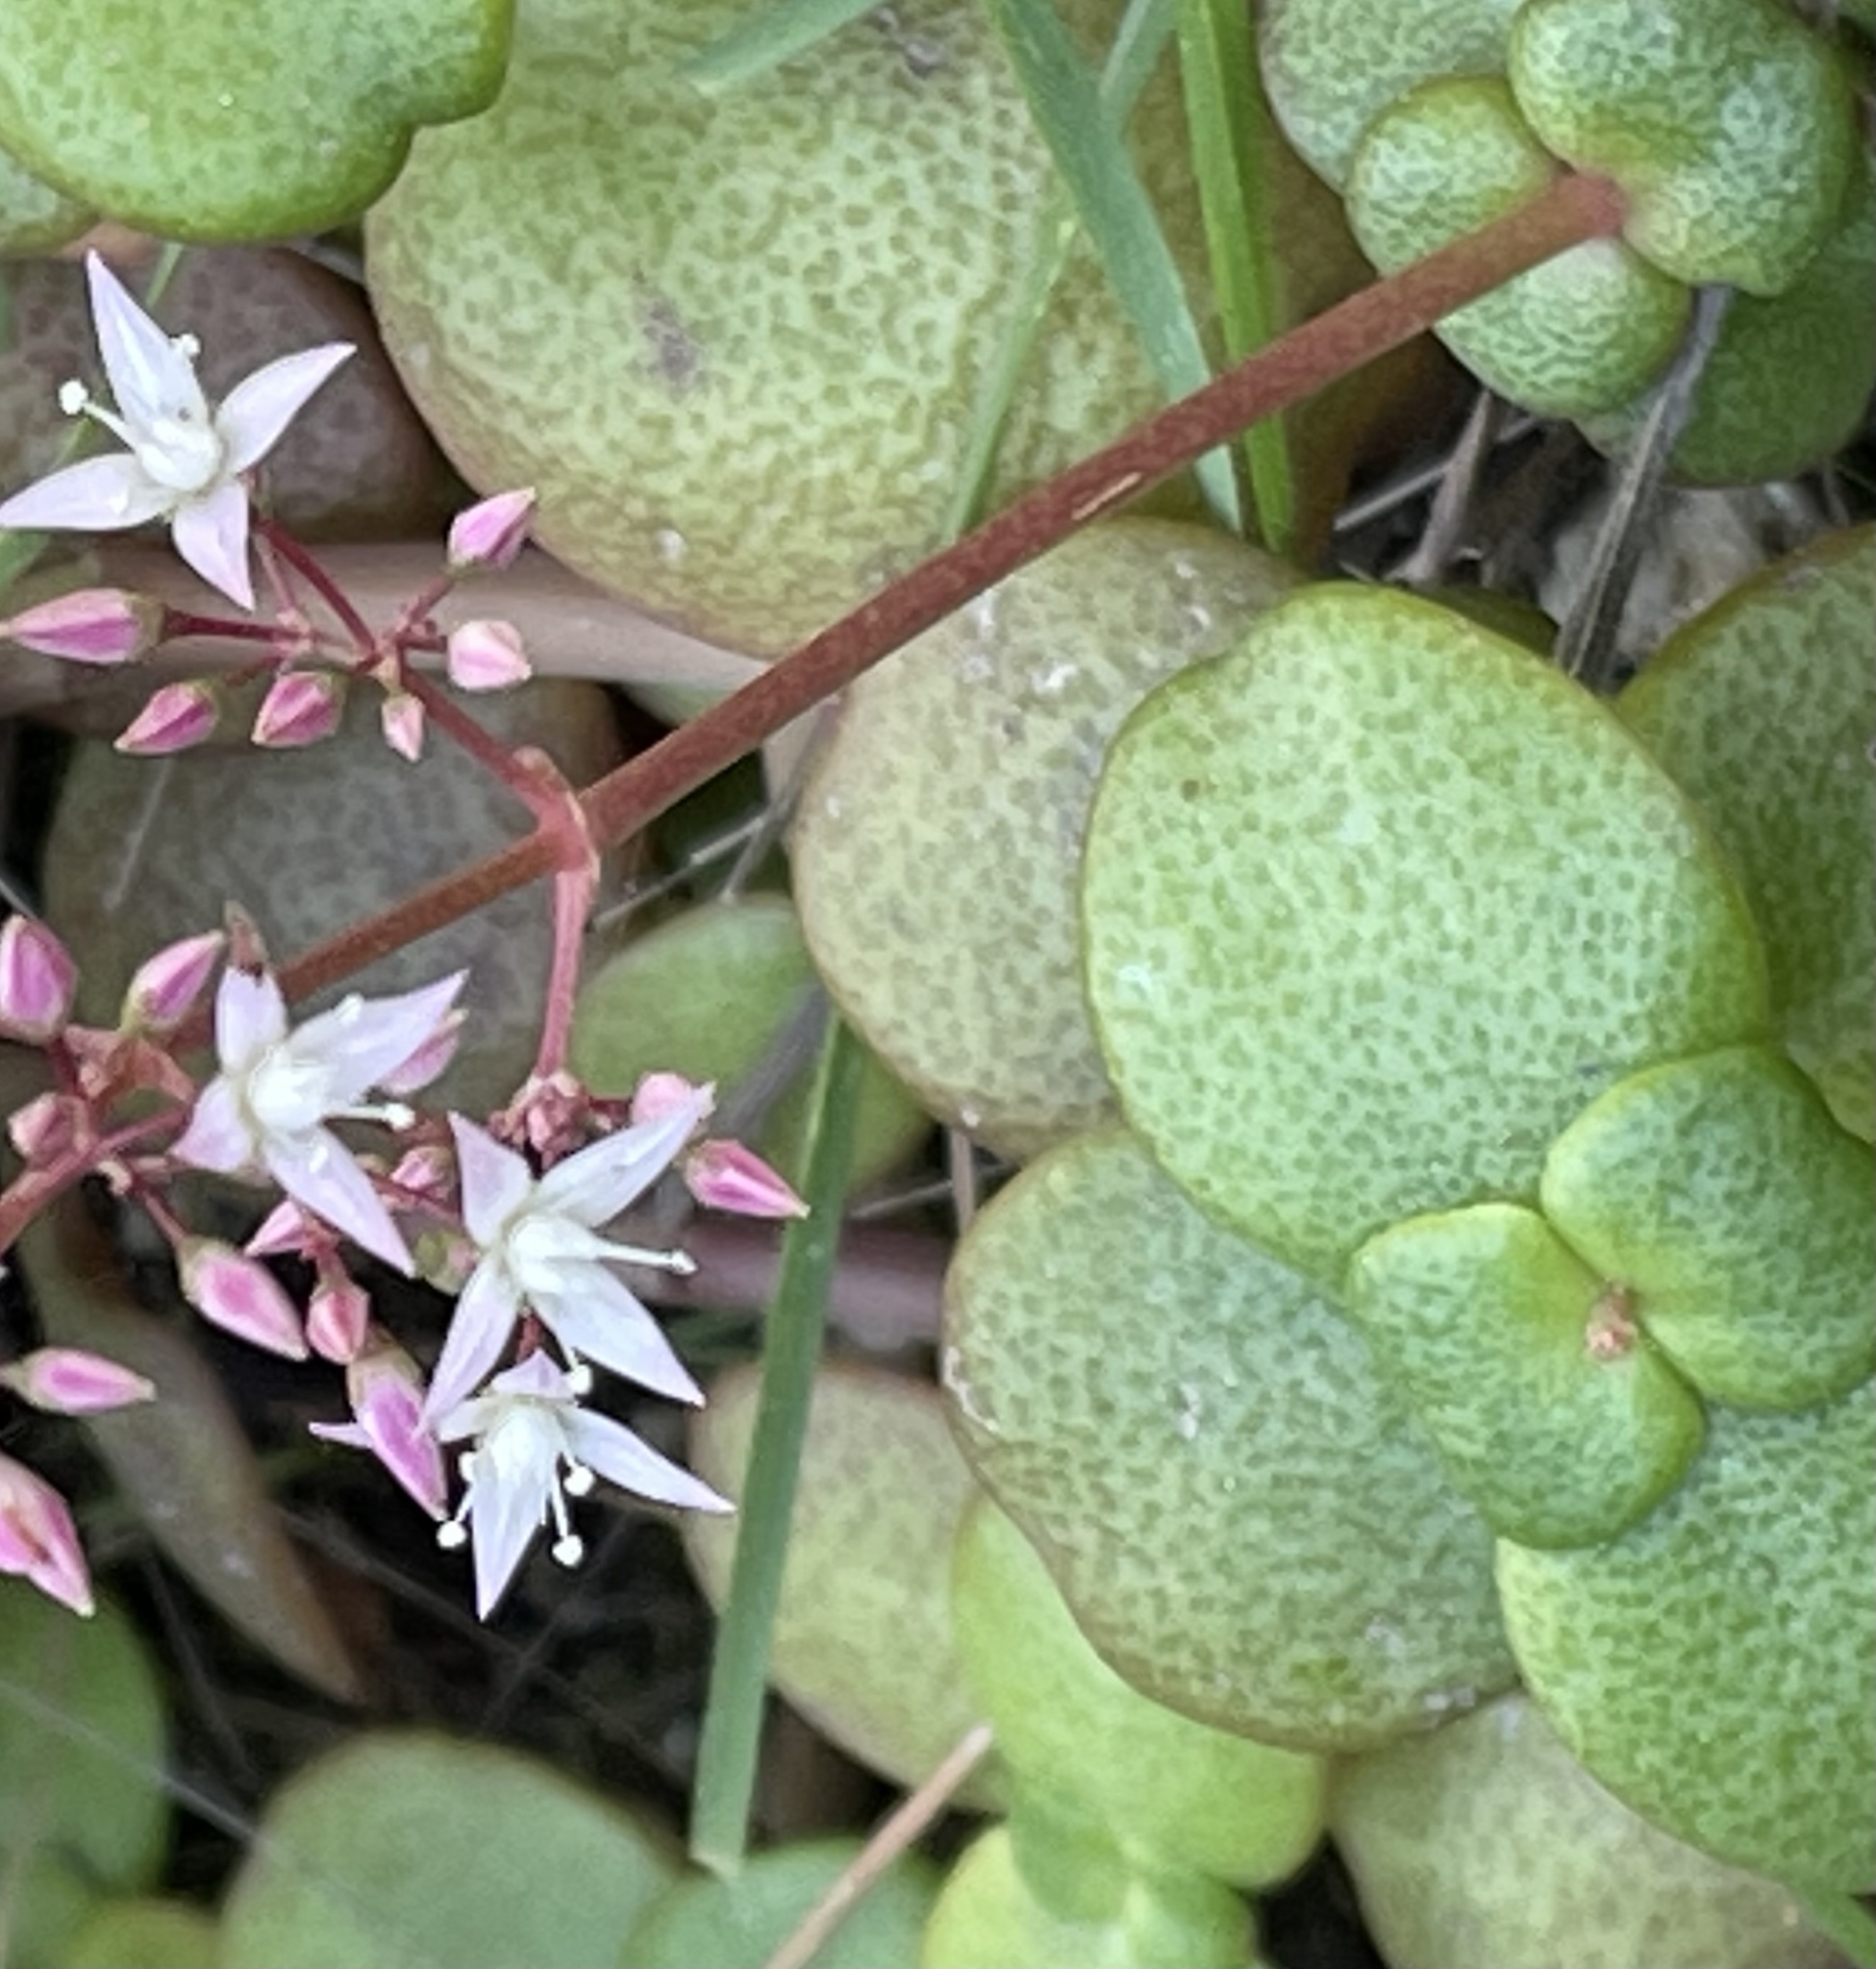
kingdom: Plantae
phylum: Tracheophyta
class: Magnoliopsida
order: Saxifragales
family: Crassulaceae
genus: Crassula
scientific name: Crassula multicava
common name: Cape province pygmyweed
